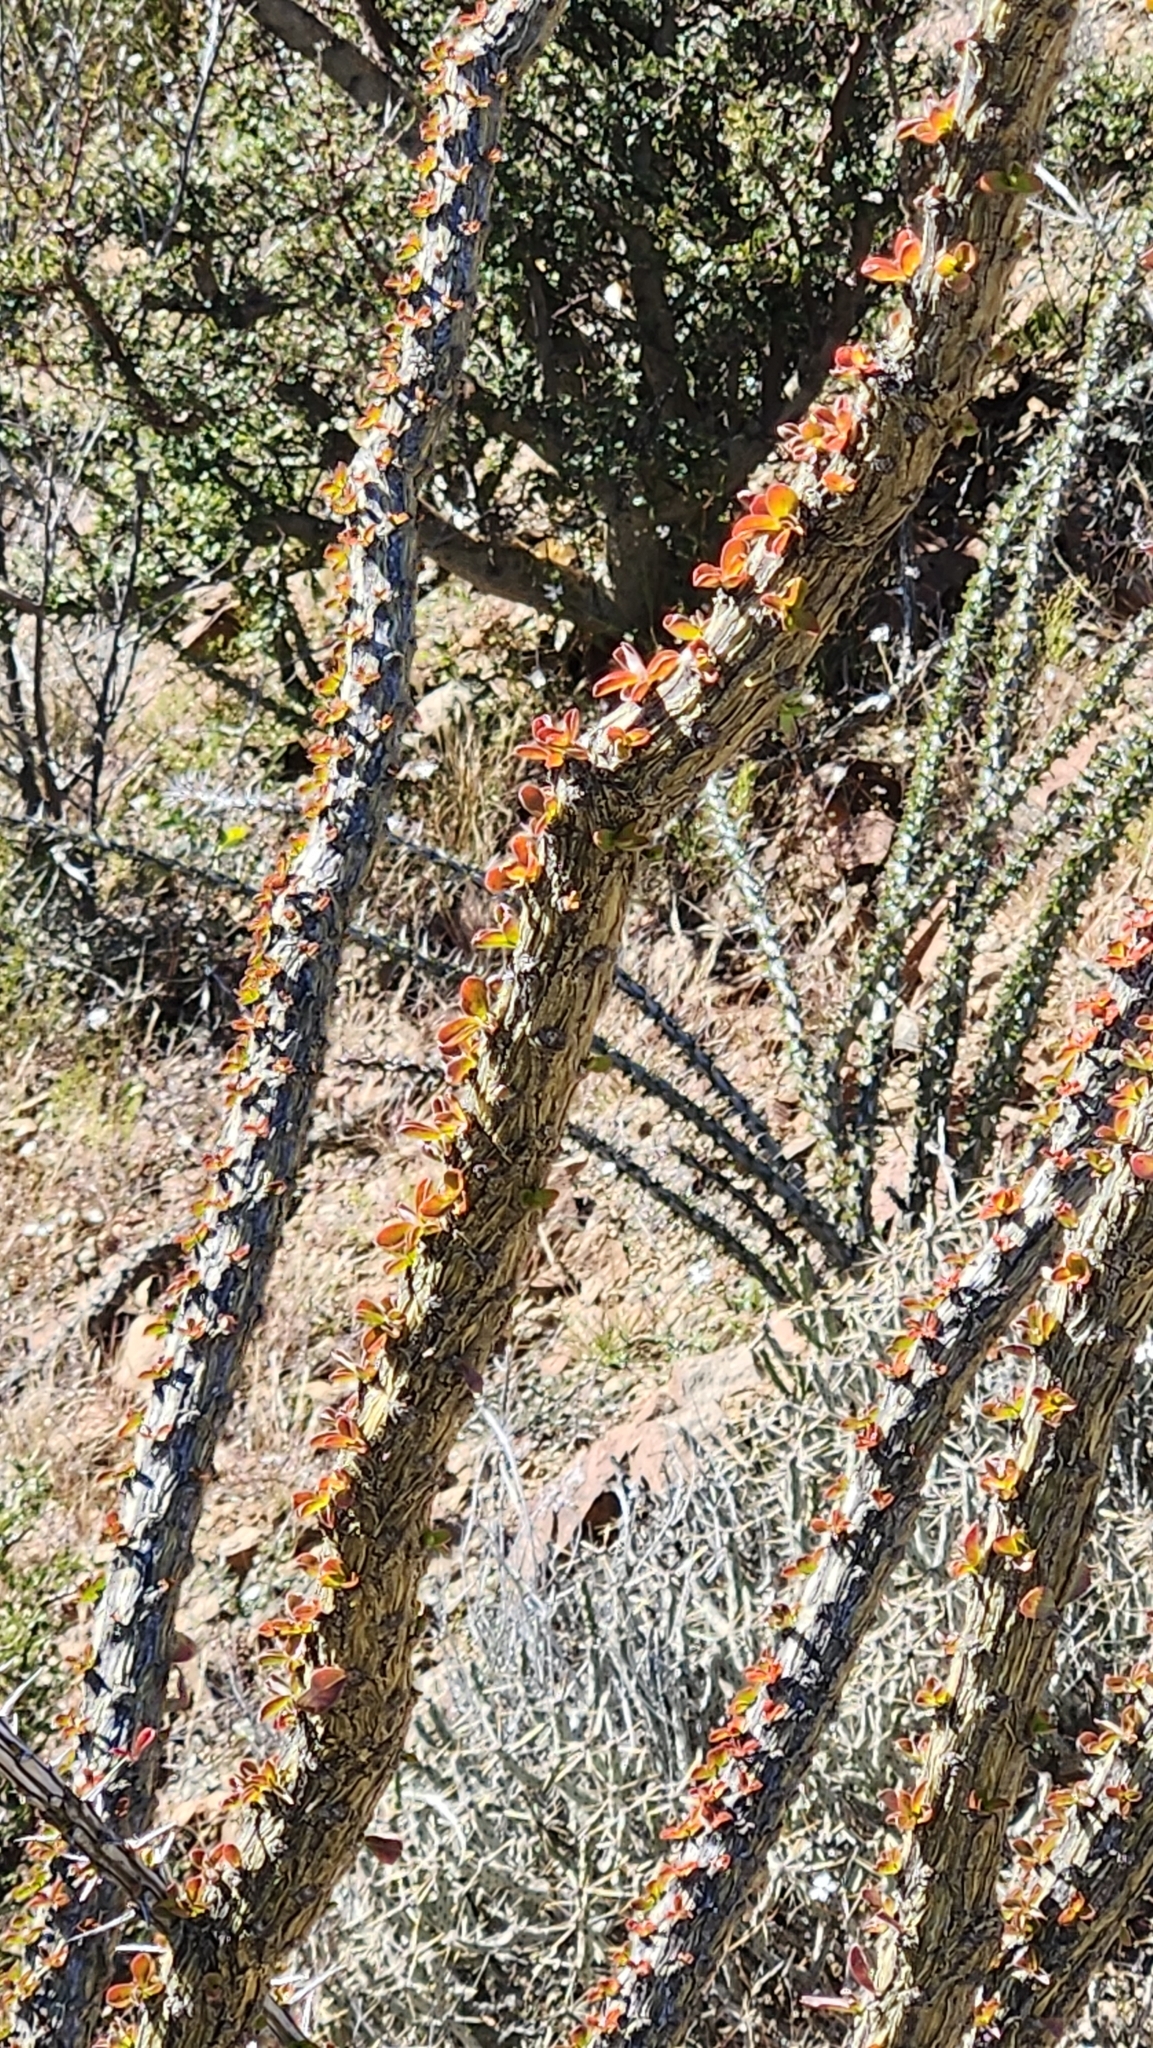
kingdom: Plantae
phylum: Tracheophyta
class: Magnoliopsida
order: Ericales
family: Fouquieriaceae
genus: Fouquieria
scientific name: Fouquieria splendens
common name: Vine-cactus
